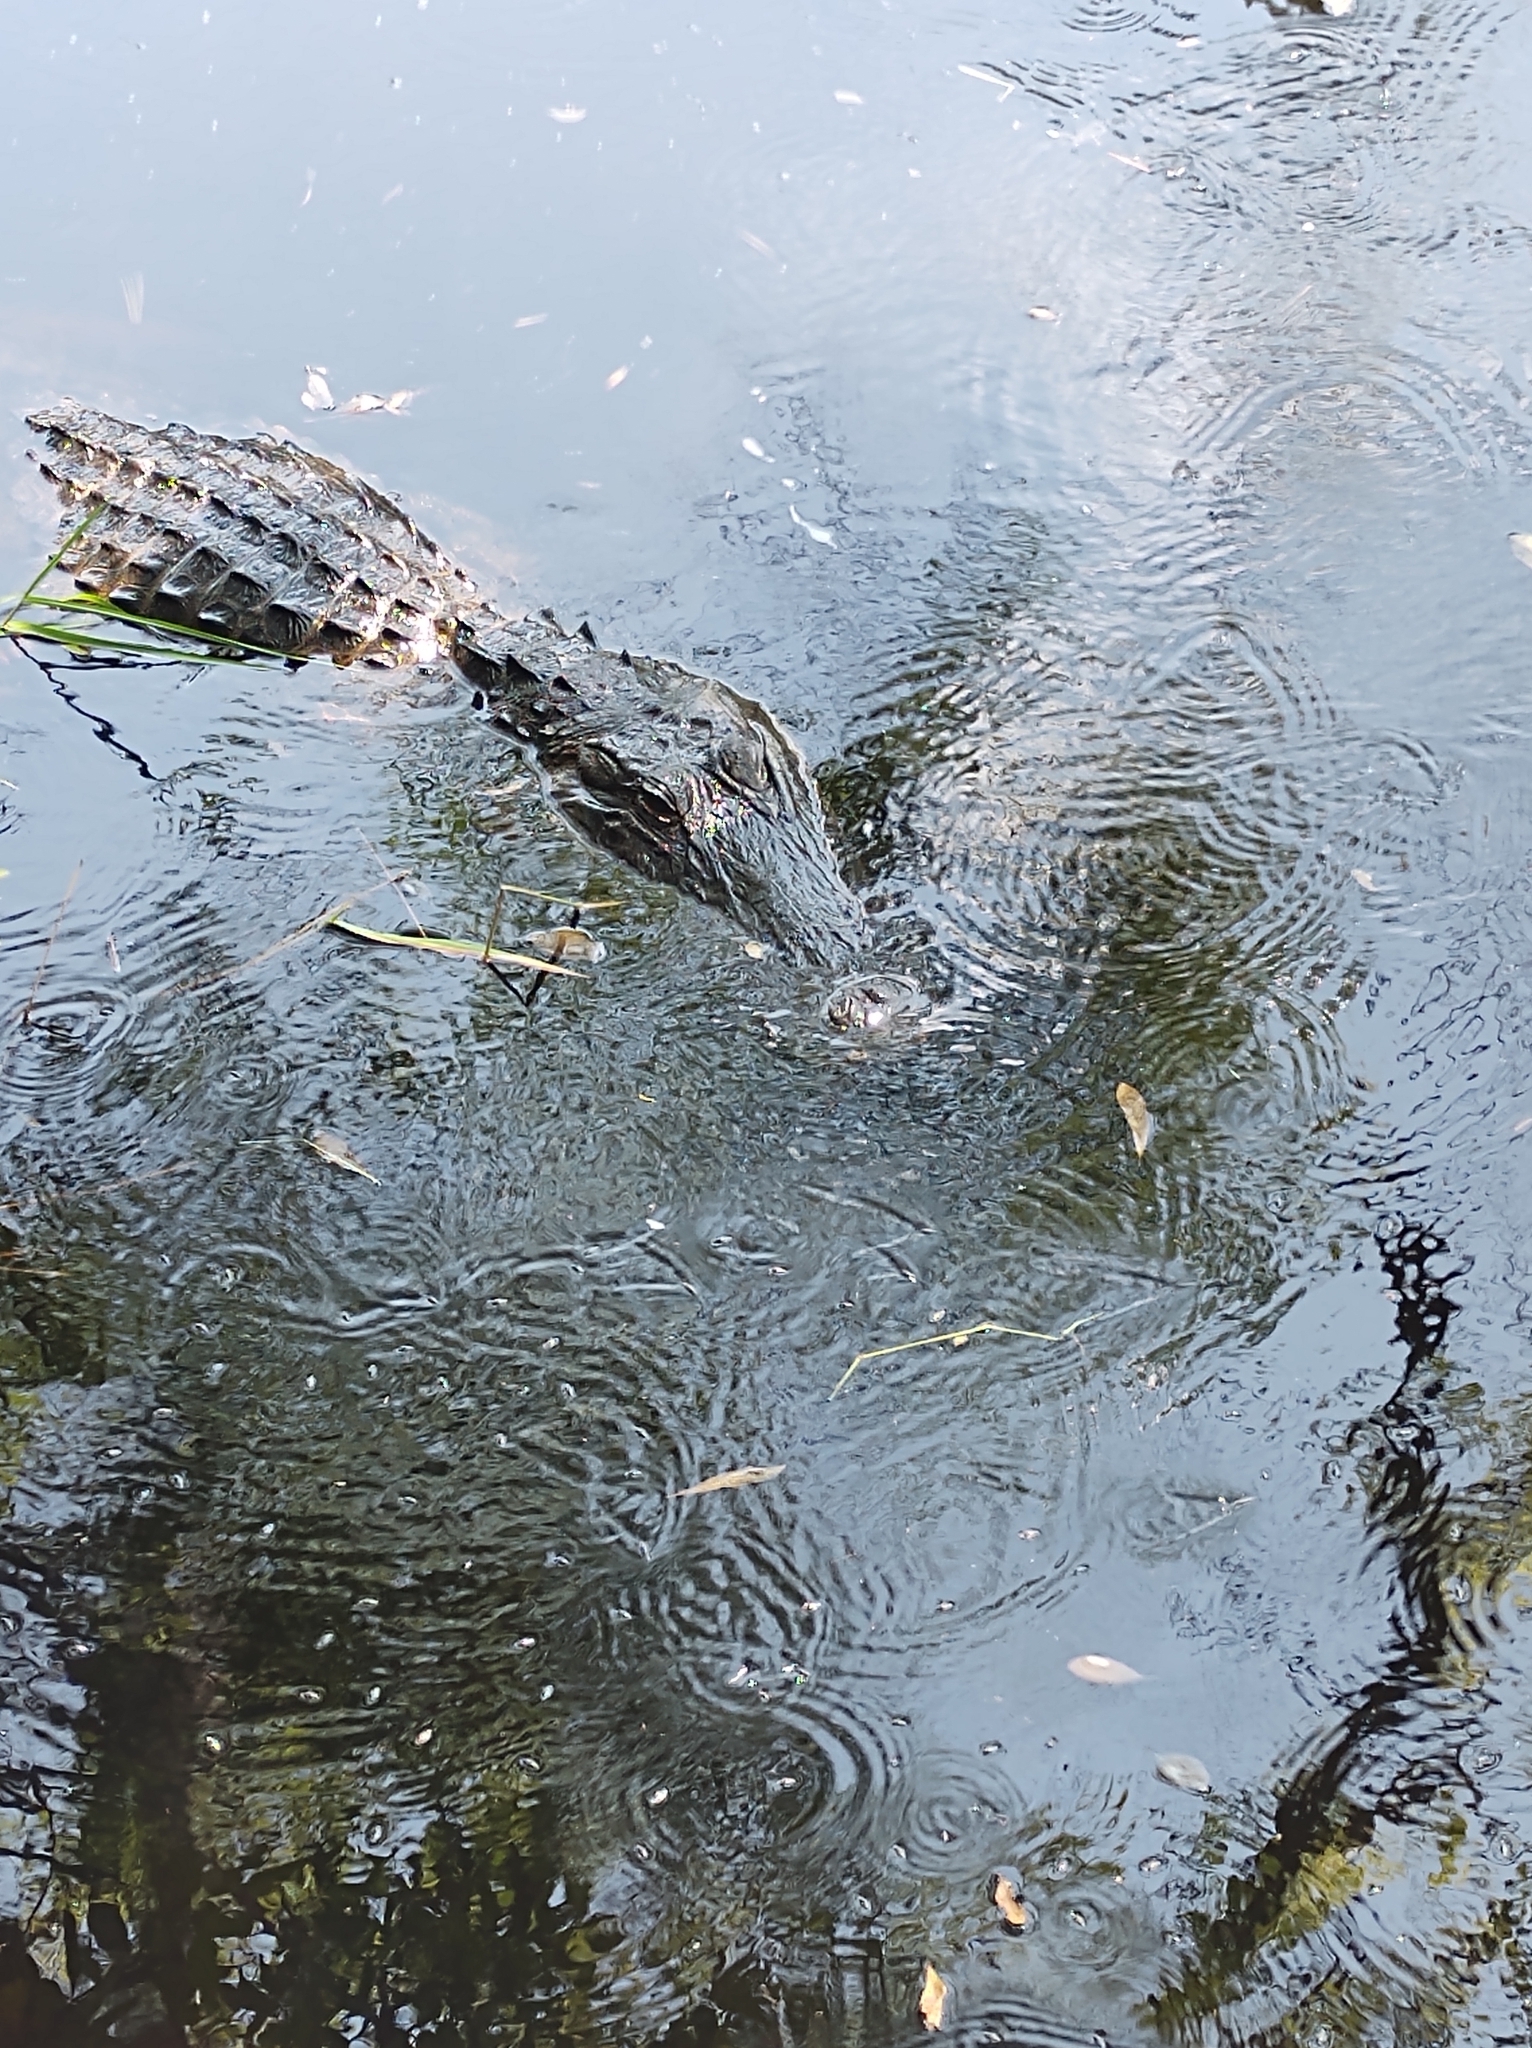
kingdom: Animalia
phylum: Chordata
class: Crocodylia
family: Alligatoridae
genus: Alligator
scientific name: Alligator mississippiensis
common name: American alligator
